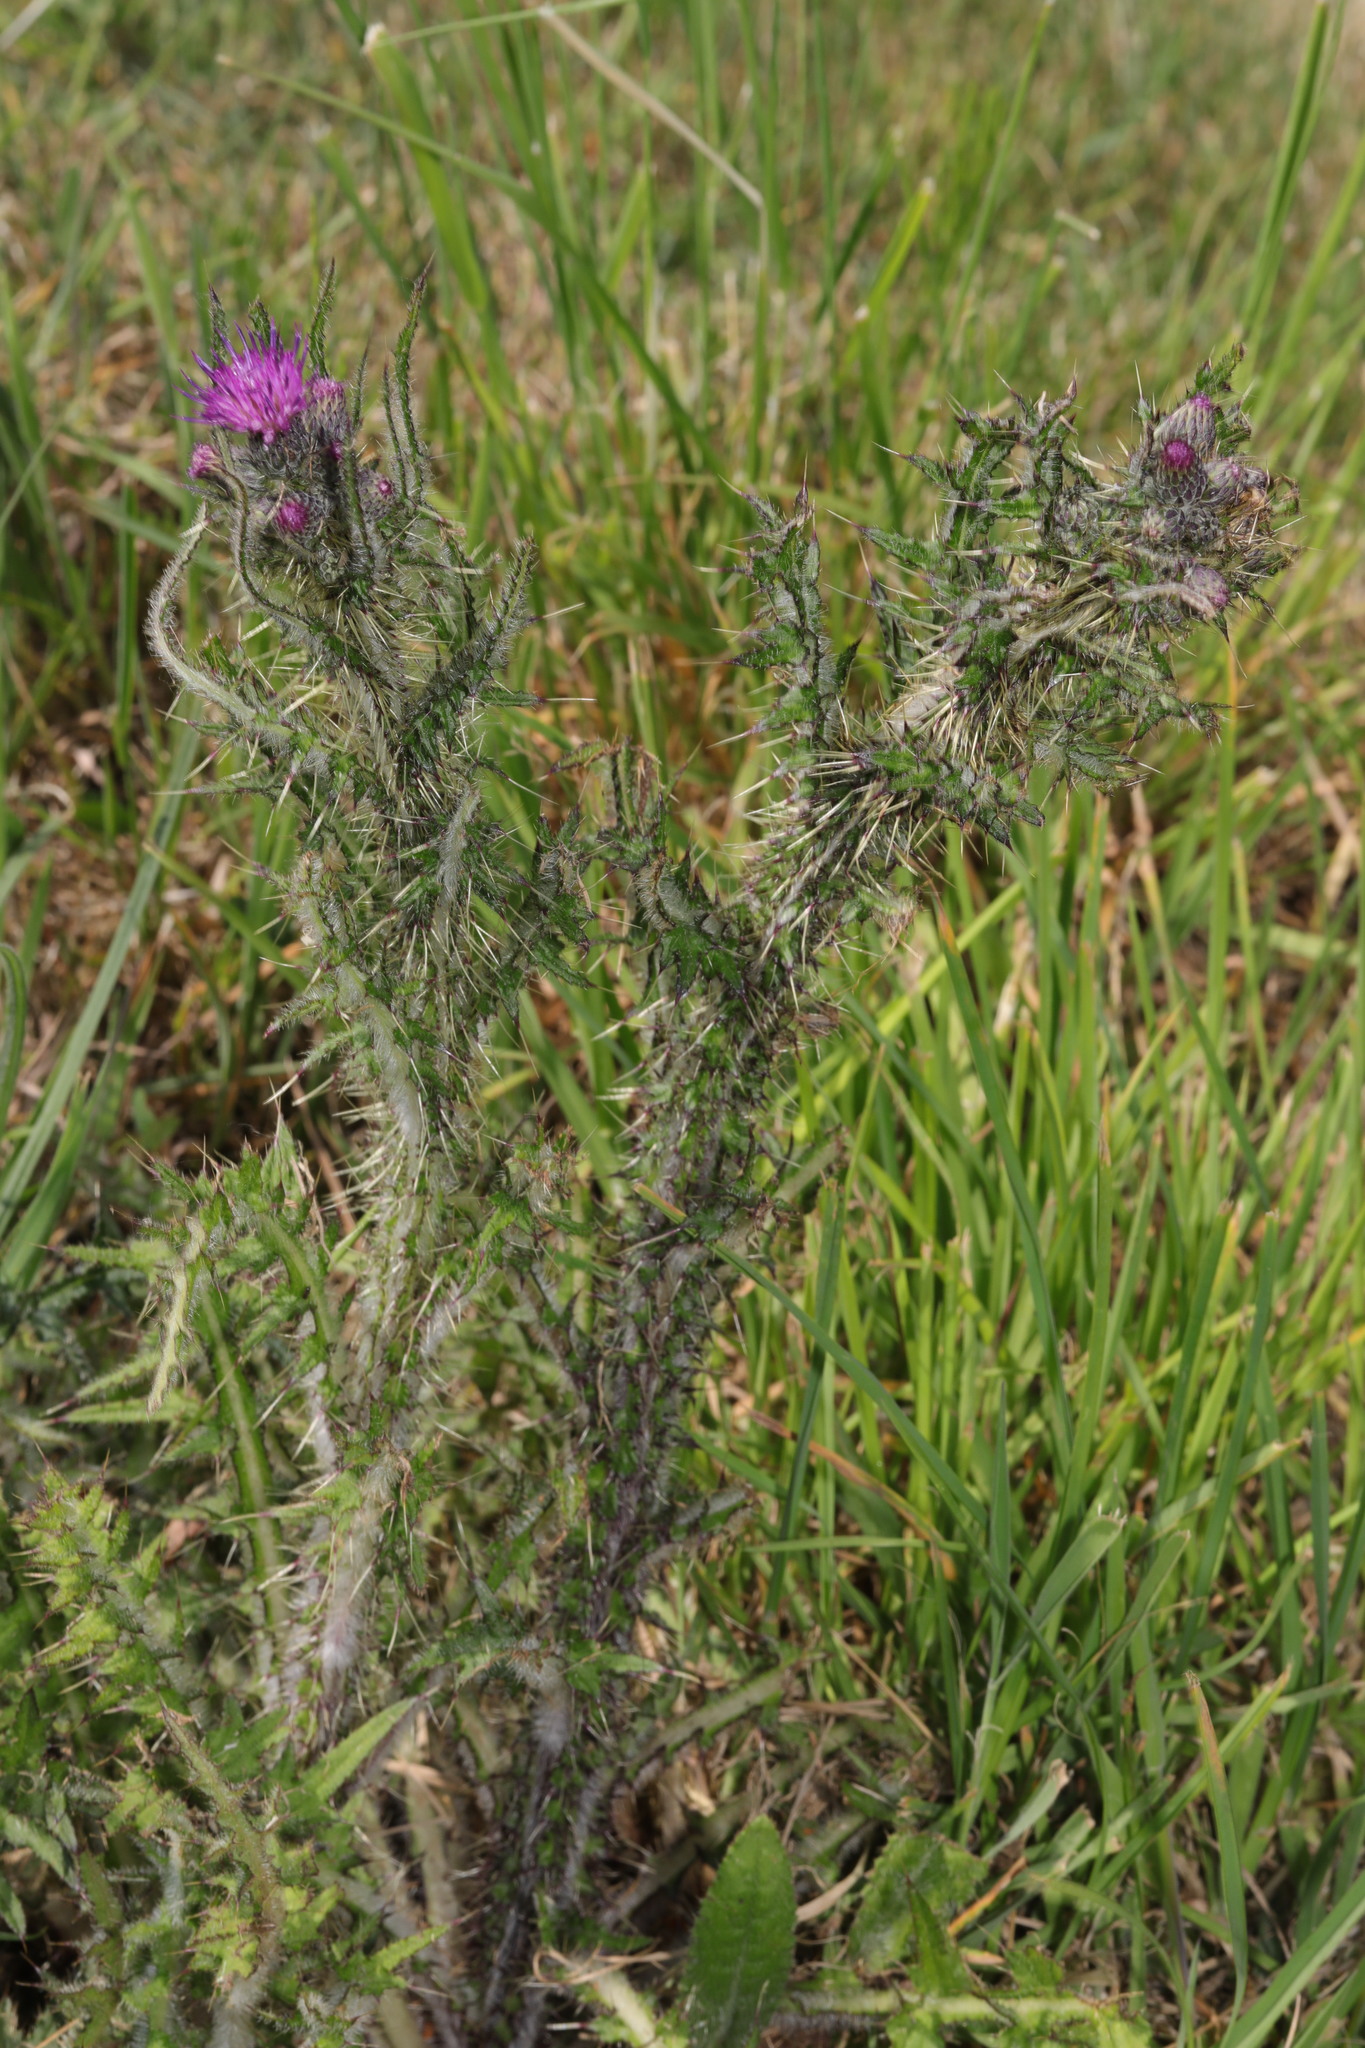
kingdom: Plantae
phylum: Tracheophyta
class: Magnoliopsida
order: Asterales
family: Asteraceae
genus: Cirsium
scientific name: Cirsium palustre
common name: Marsh thistle
